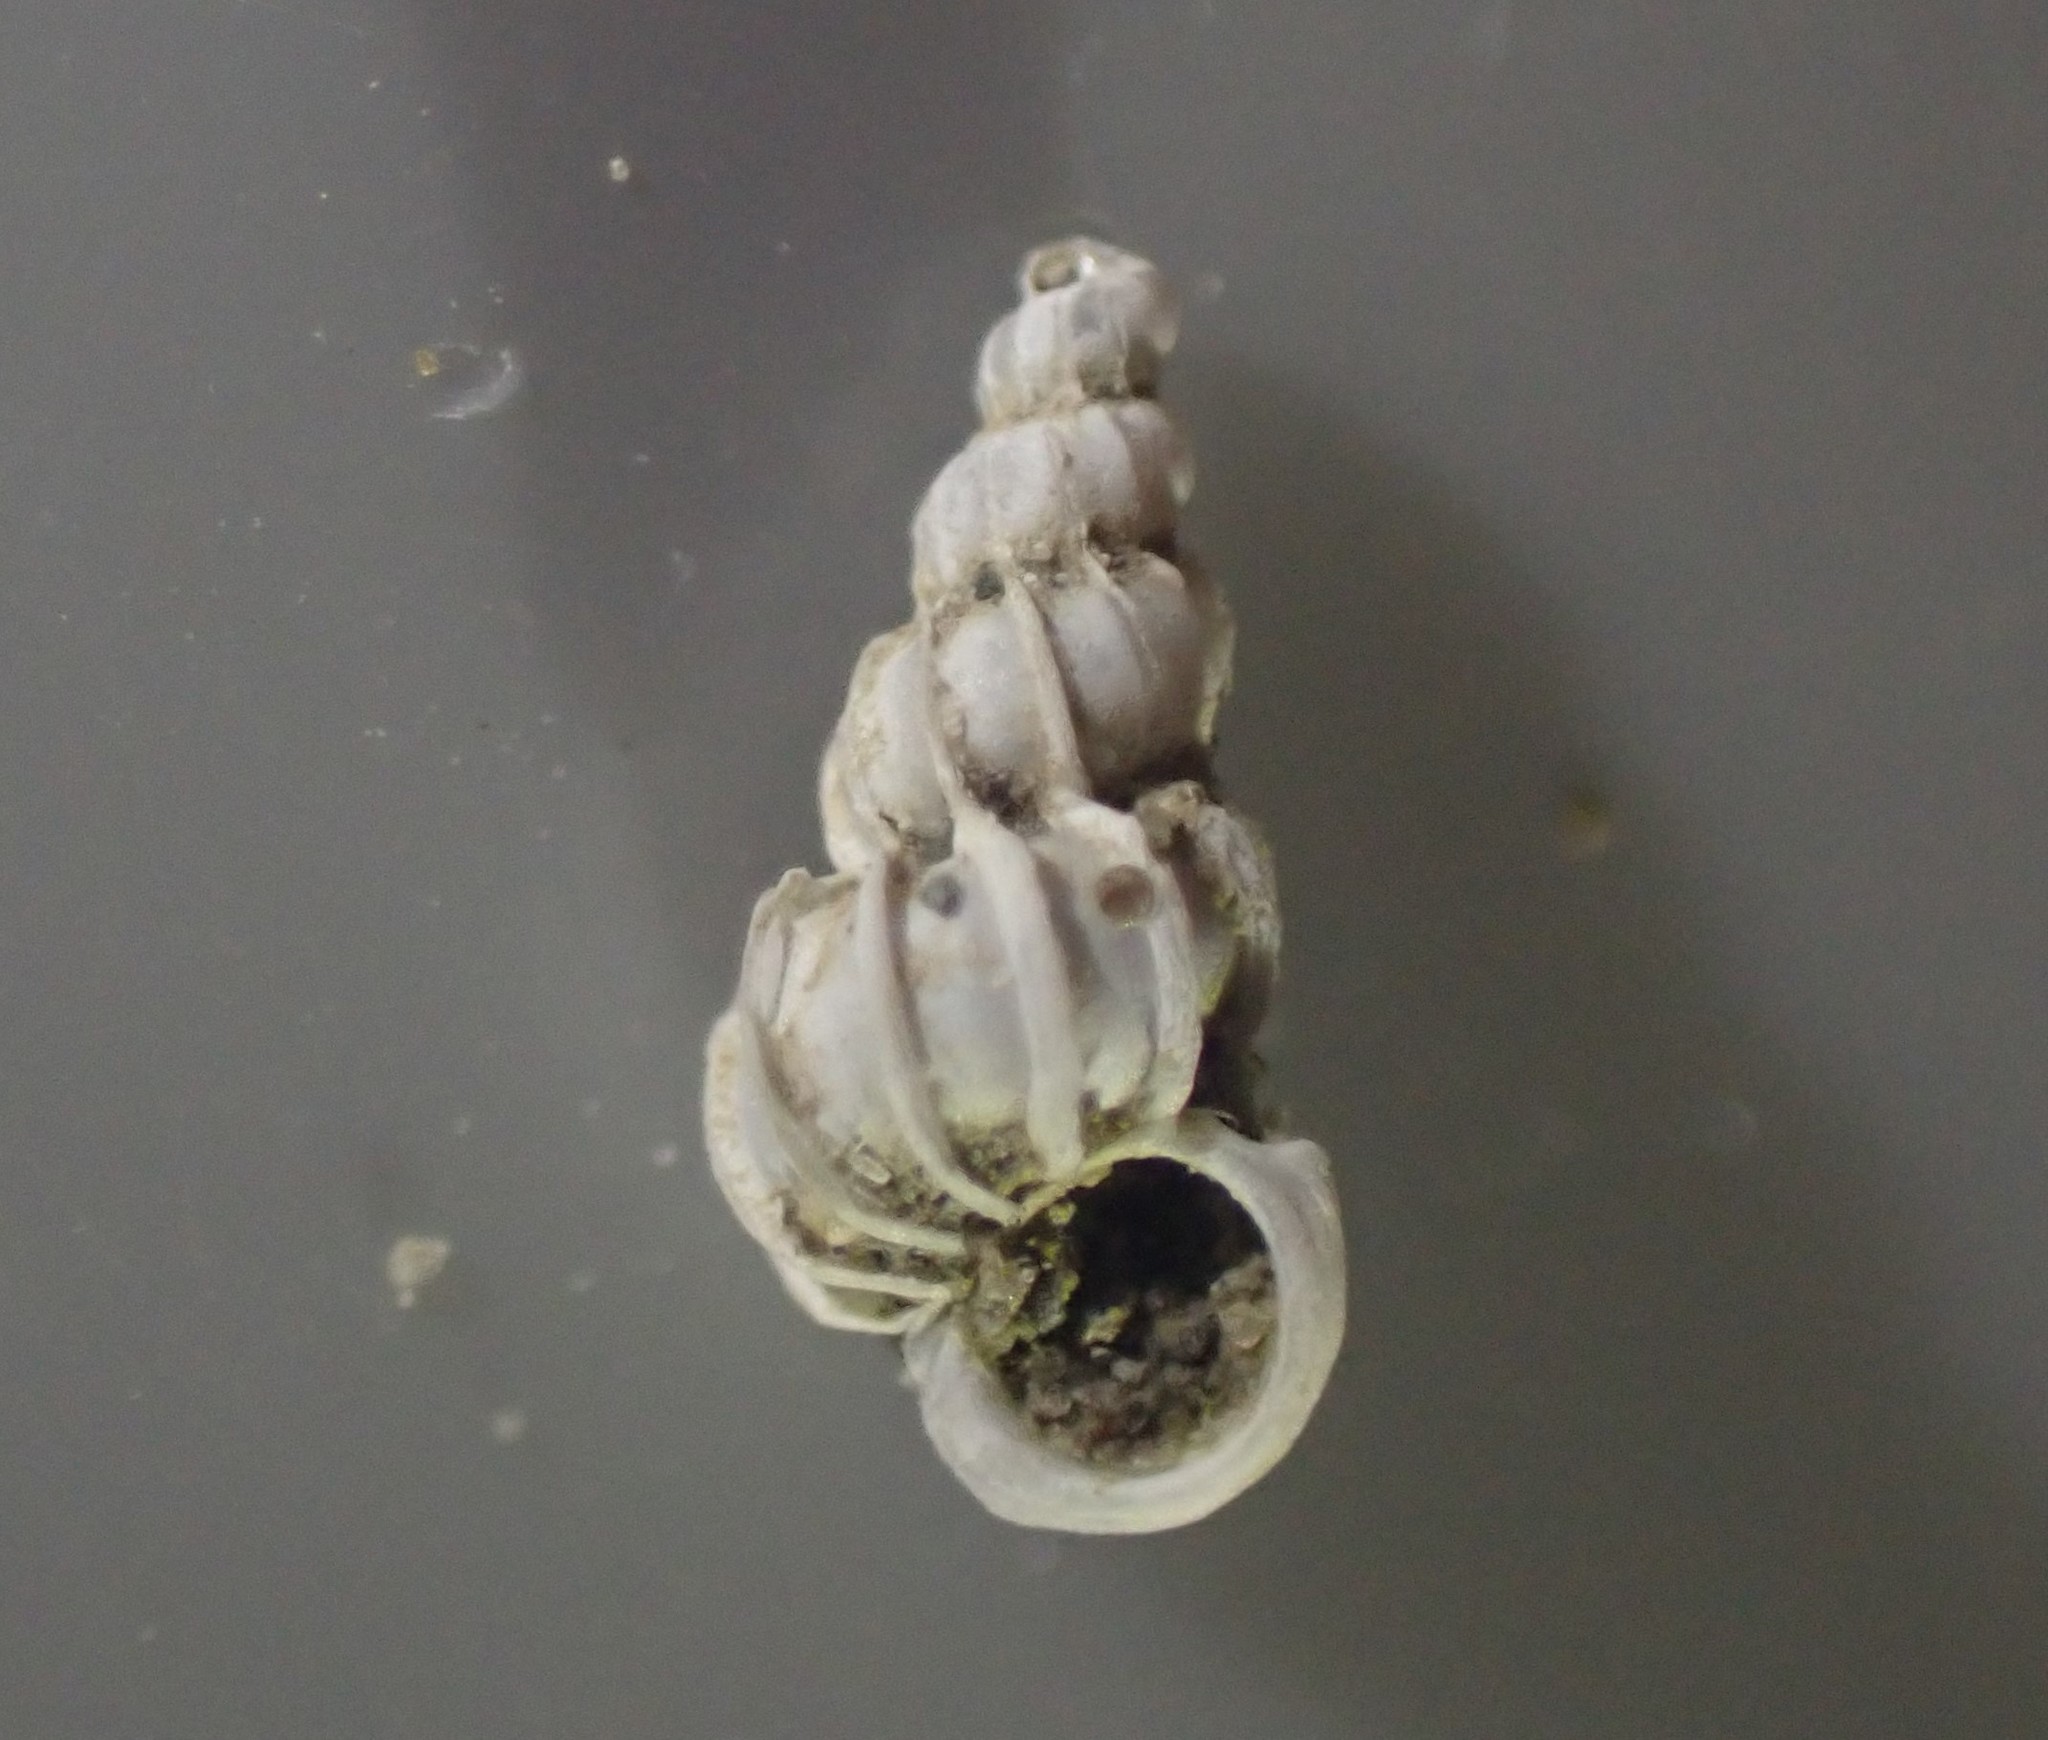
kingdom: Animalia
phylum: Mollusca
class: Gastropoda
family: Epitoniidae
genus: Epitonium
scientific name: Epitonium minorum
